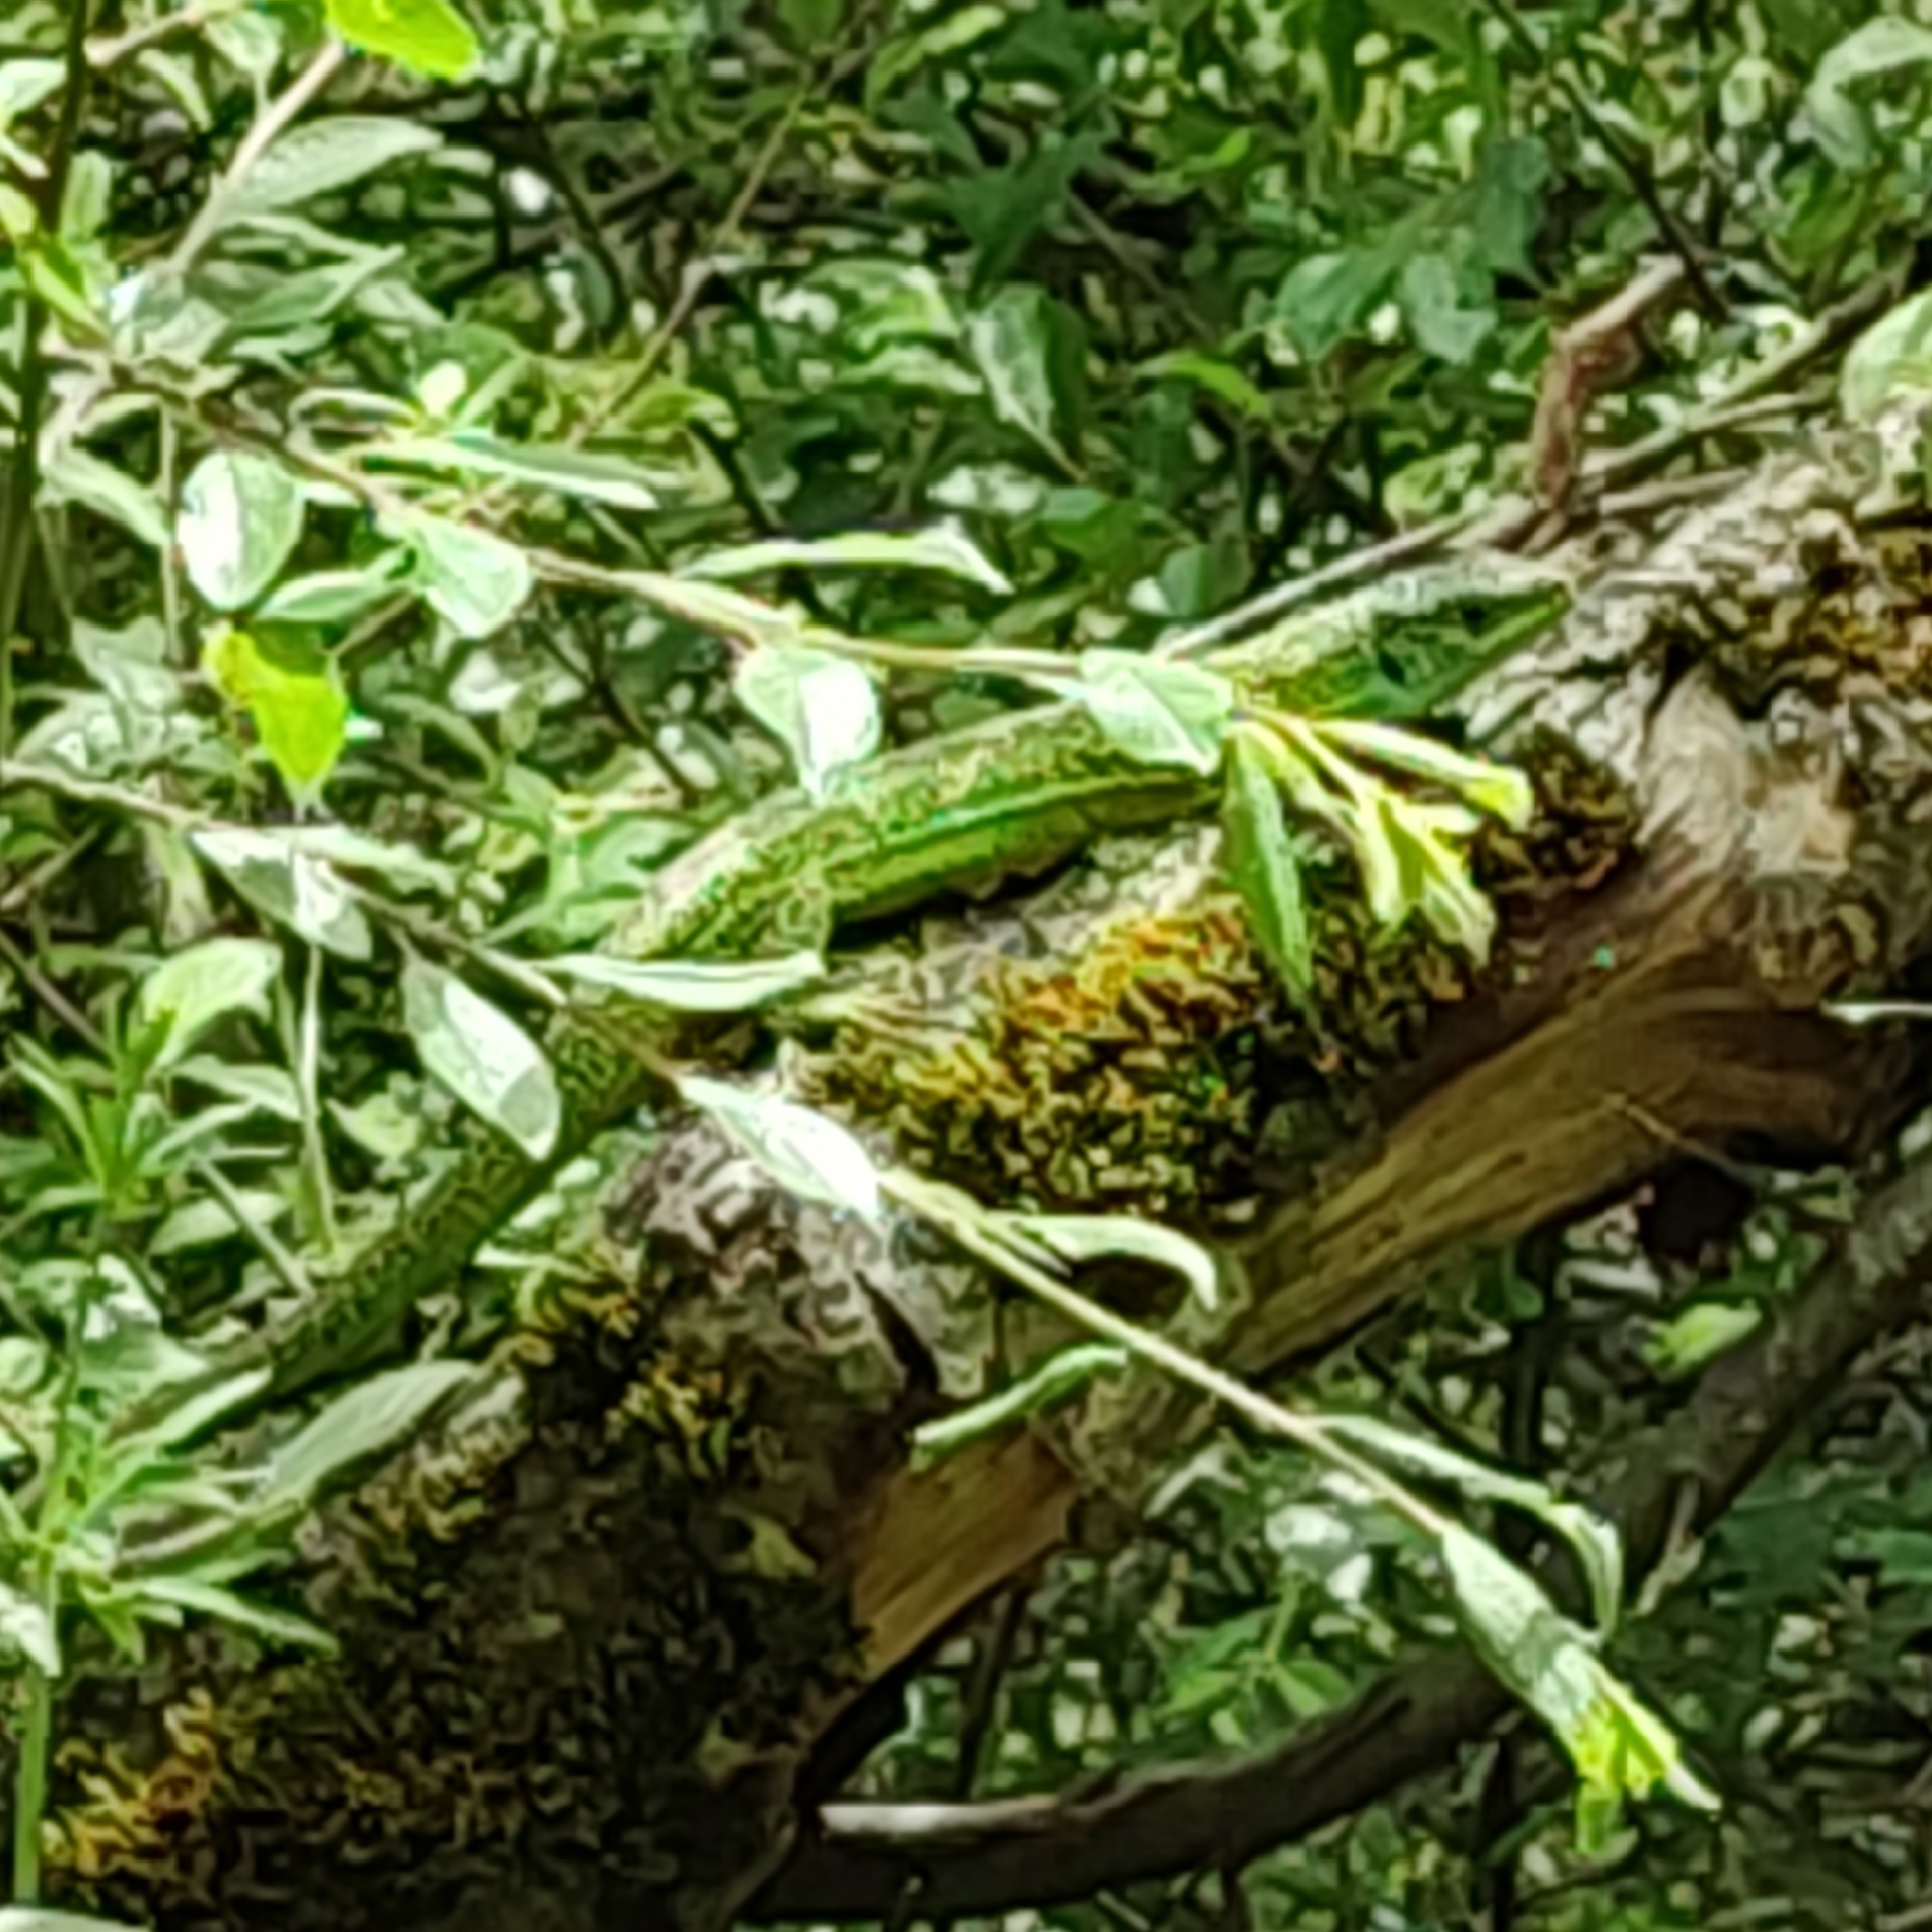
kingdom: Animalia
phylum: Chordata
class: Squamata
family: Lacertidae
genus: Lacerta
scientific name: Lacerta bilineata
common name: Western green lizard
